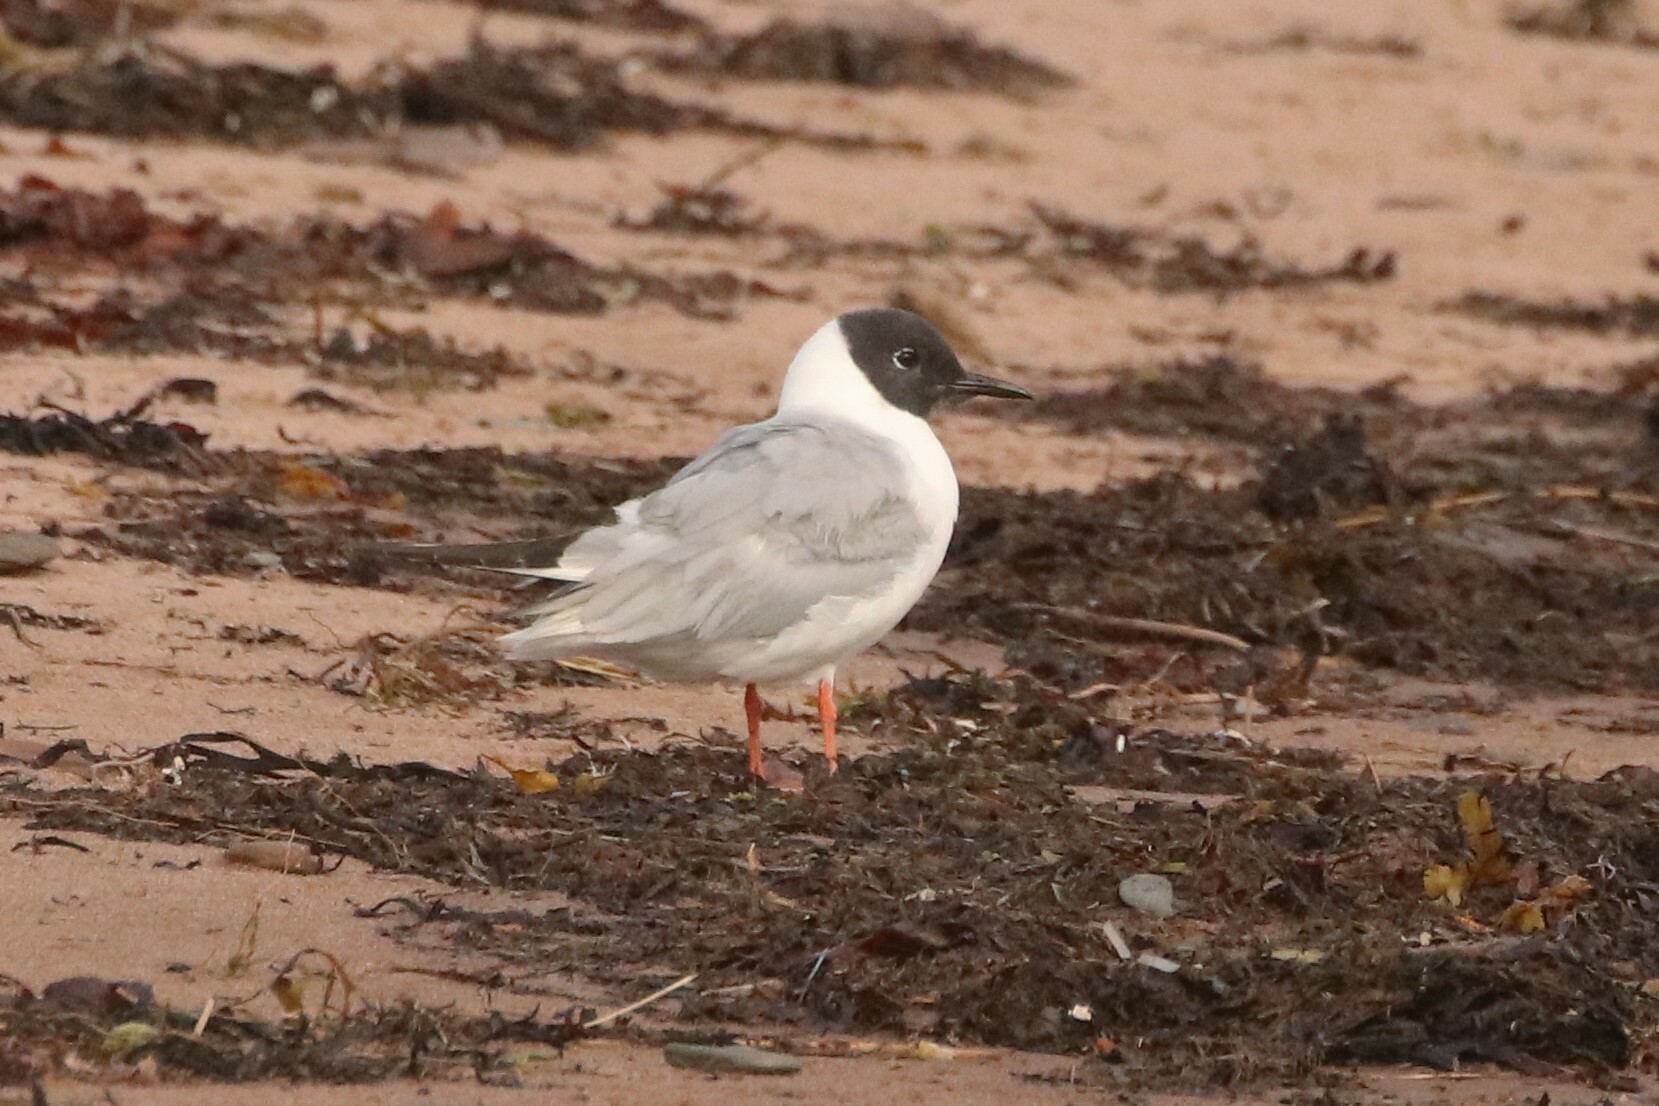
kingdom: Animalia
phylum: Chordata
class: Aves
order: Charadriiformes
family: Laridae
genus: Chroicocephalus
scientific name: Chroicocephalus philadelphia
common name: Bonaparte's gull
